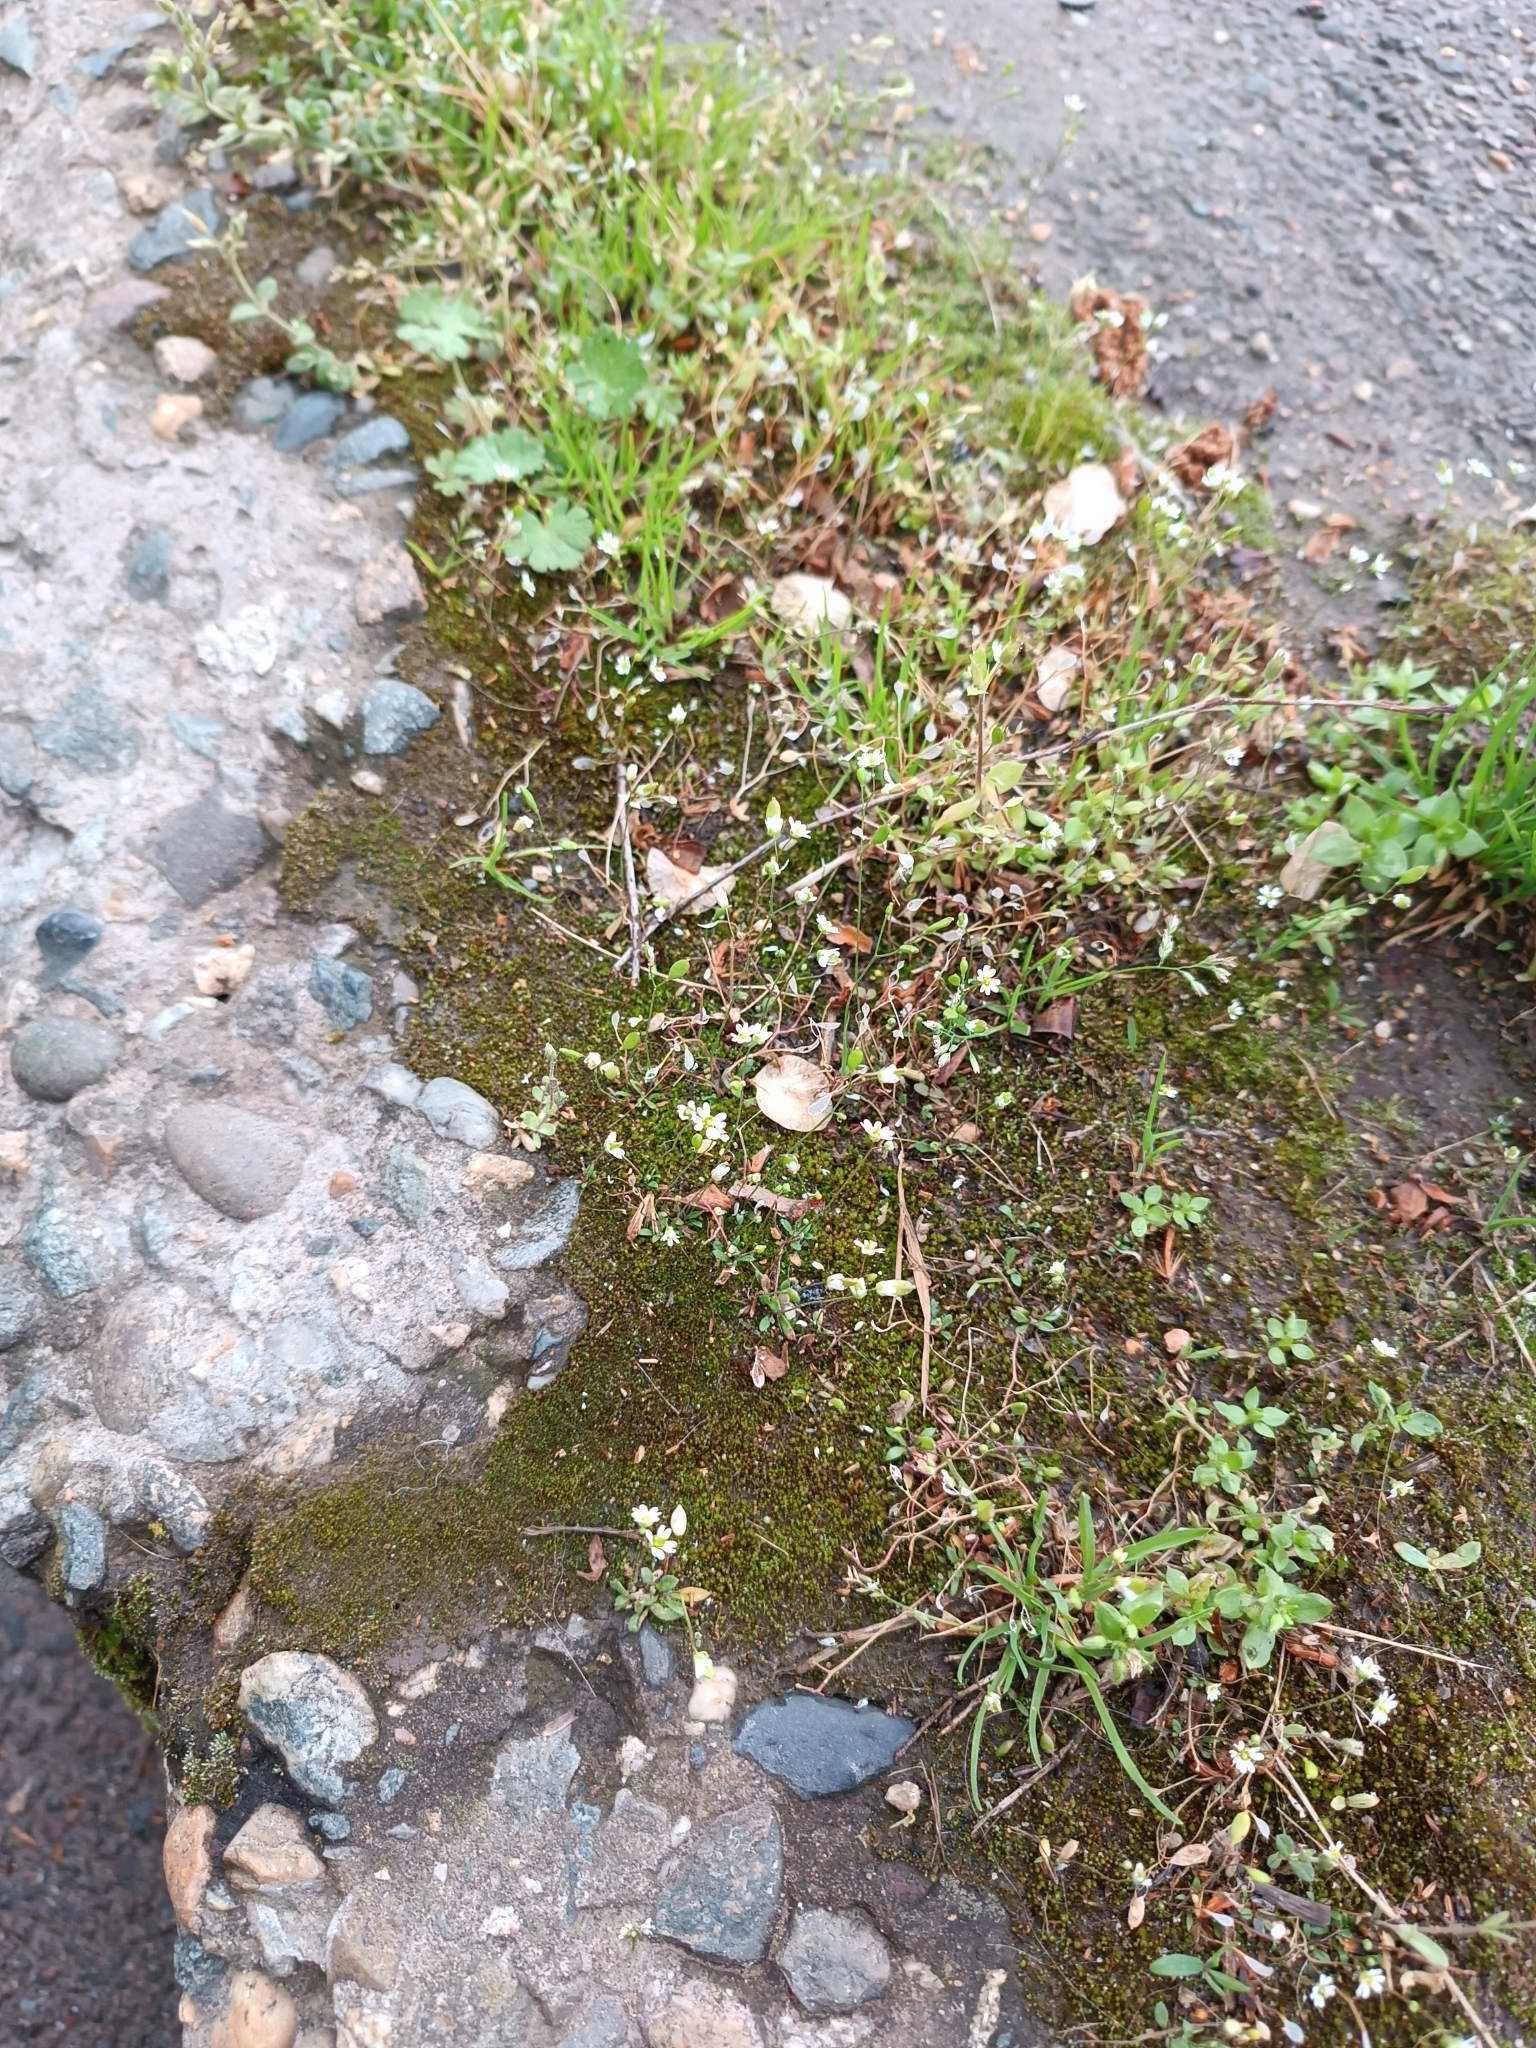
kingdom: Plantae
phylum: Tracheophyta
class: Magnoliopsida
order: Brassicales
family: Brassicaceae
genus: Draba
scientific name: Draba verna
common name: Spring draba
